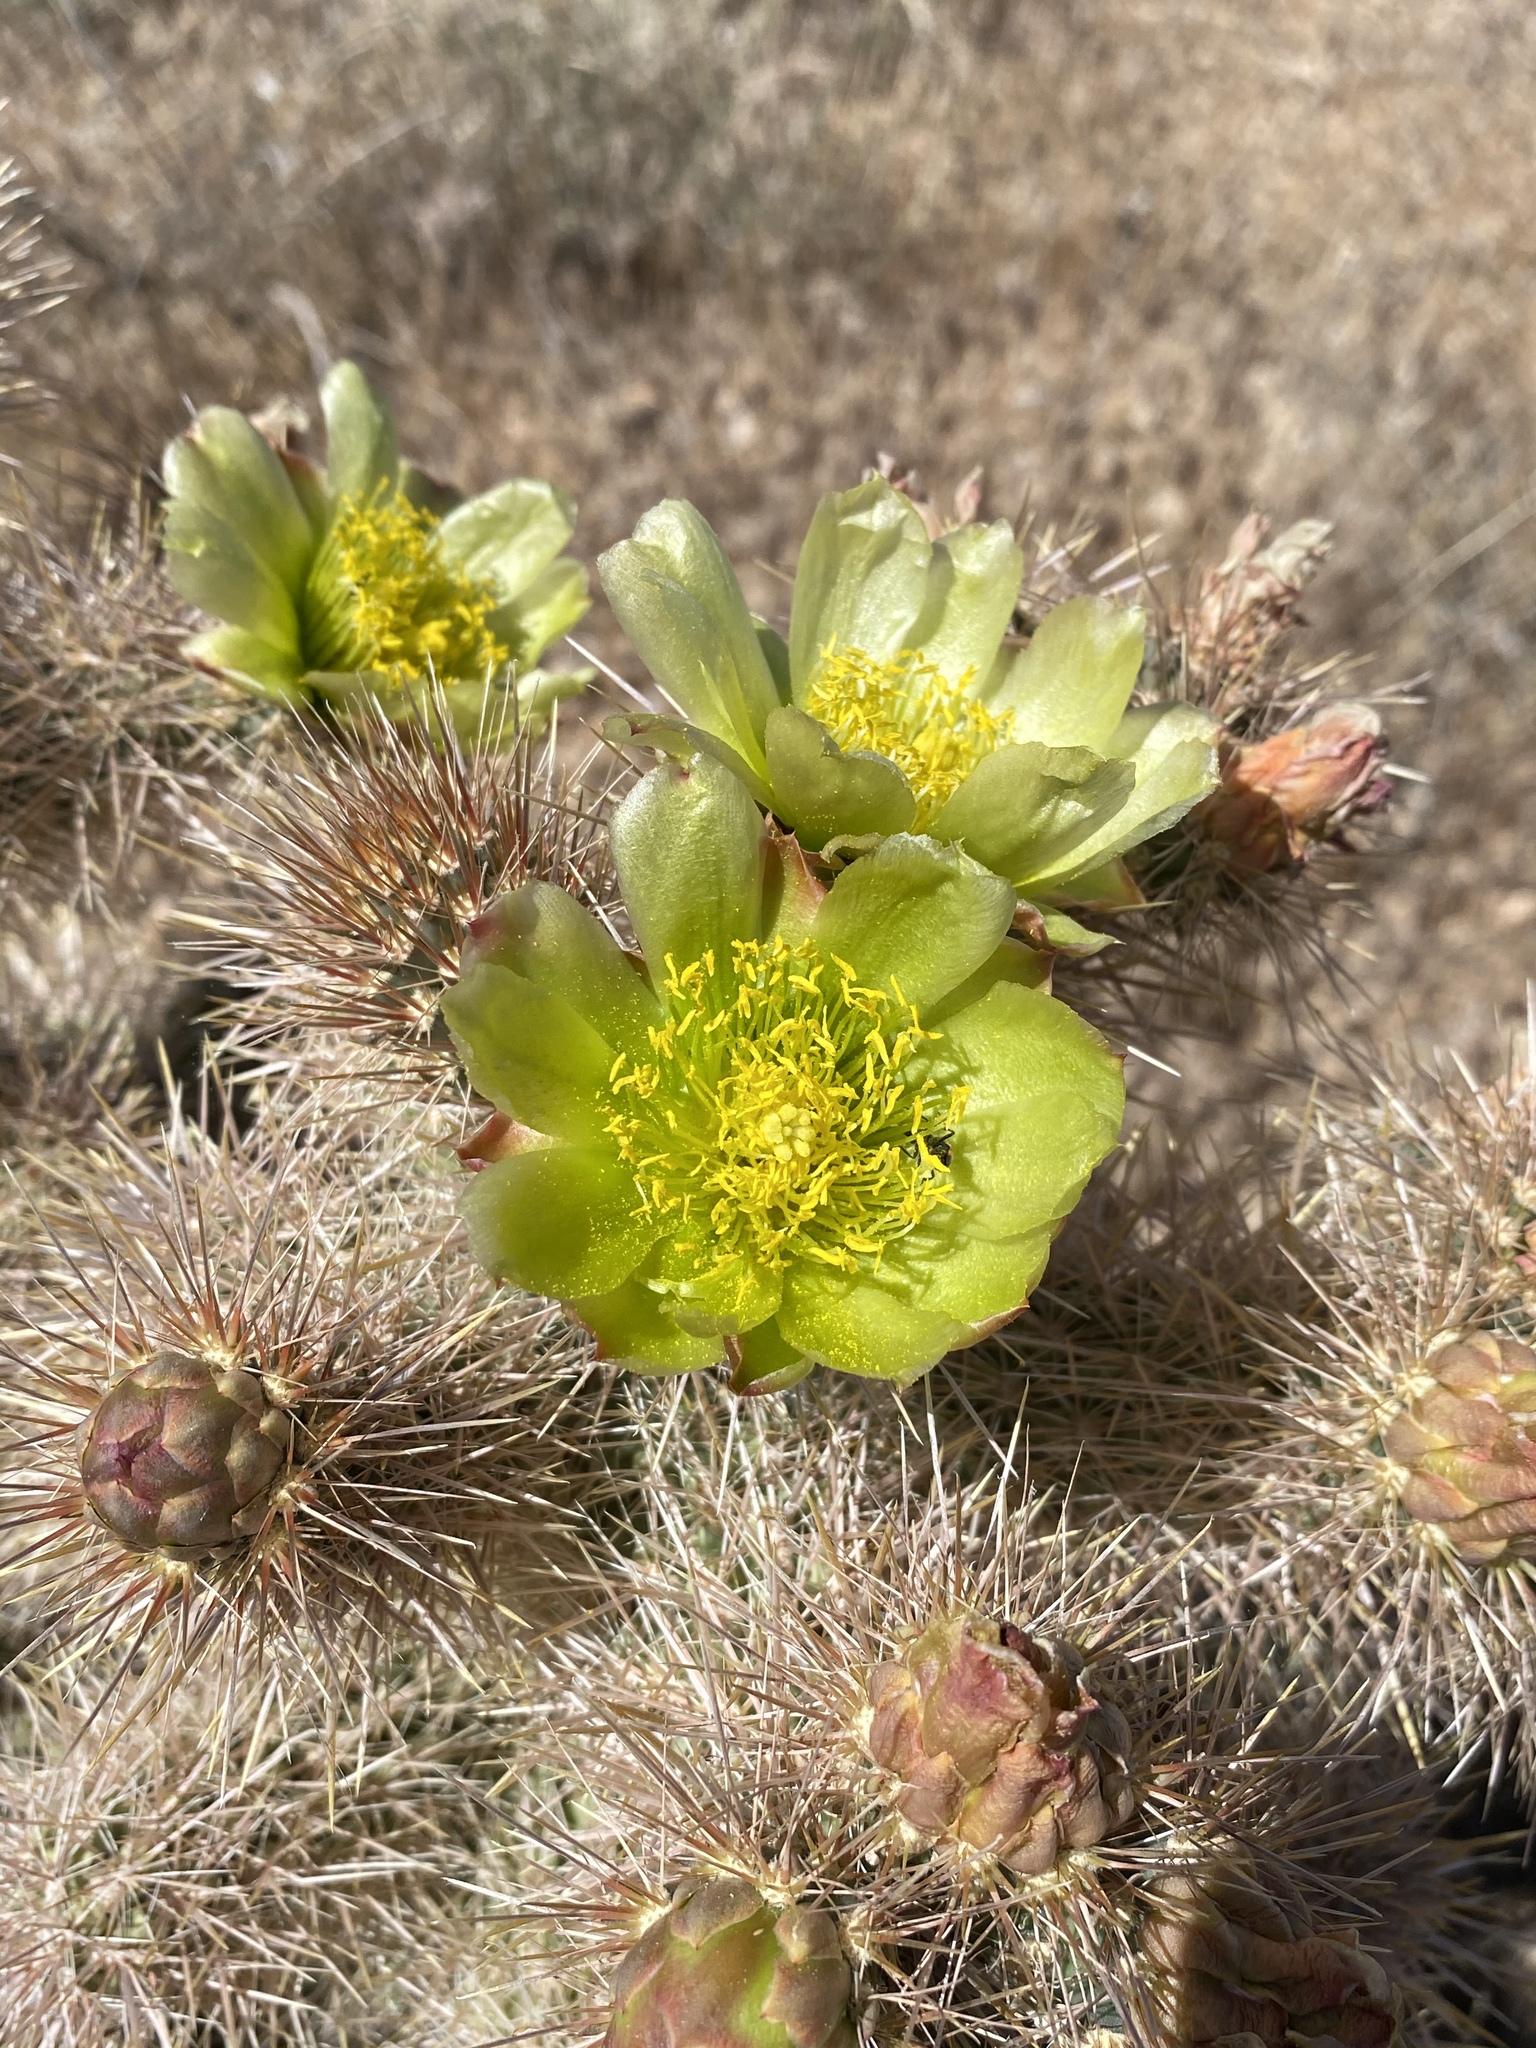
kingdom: Plantae
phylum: Tracheophyta
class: Magnoliopsida
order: Caryophyllales
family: Cactaceae
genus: Cylindropuntia
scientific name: Cylindropuntia echinocarpa
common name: Ground cholla
